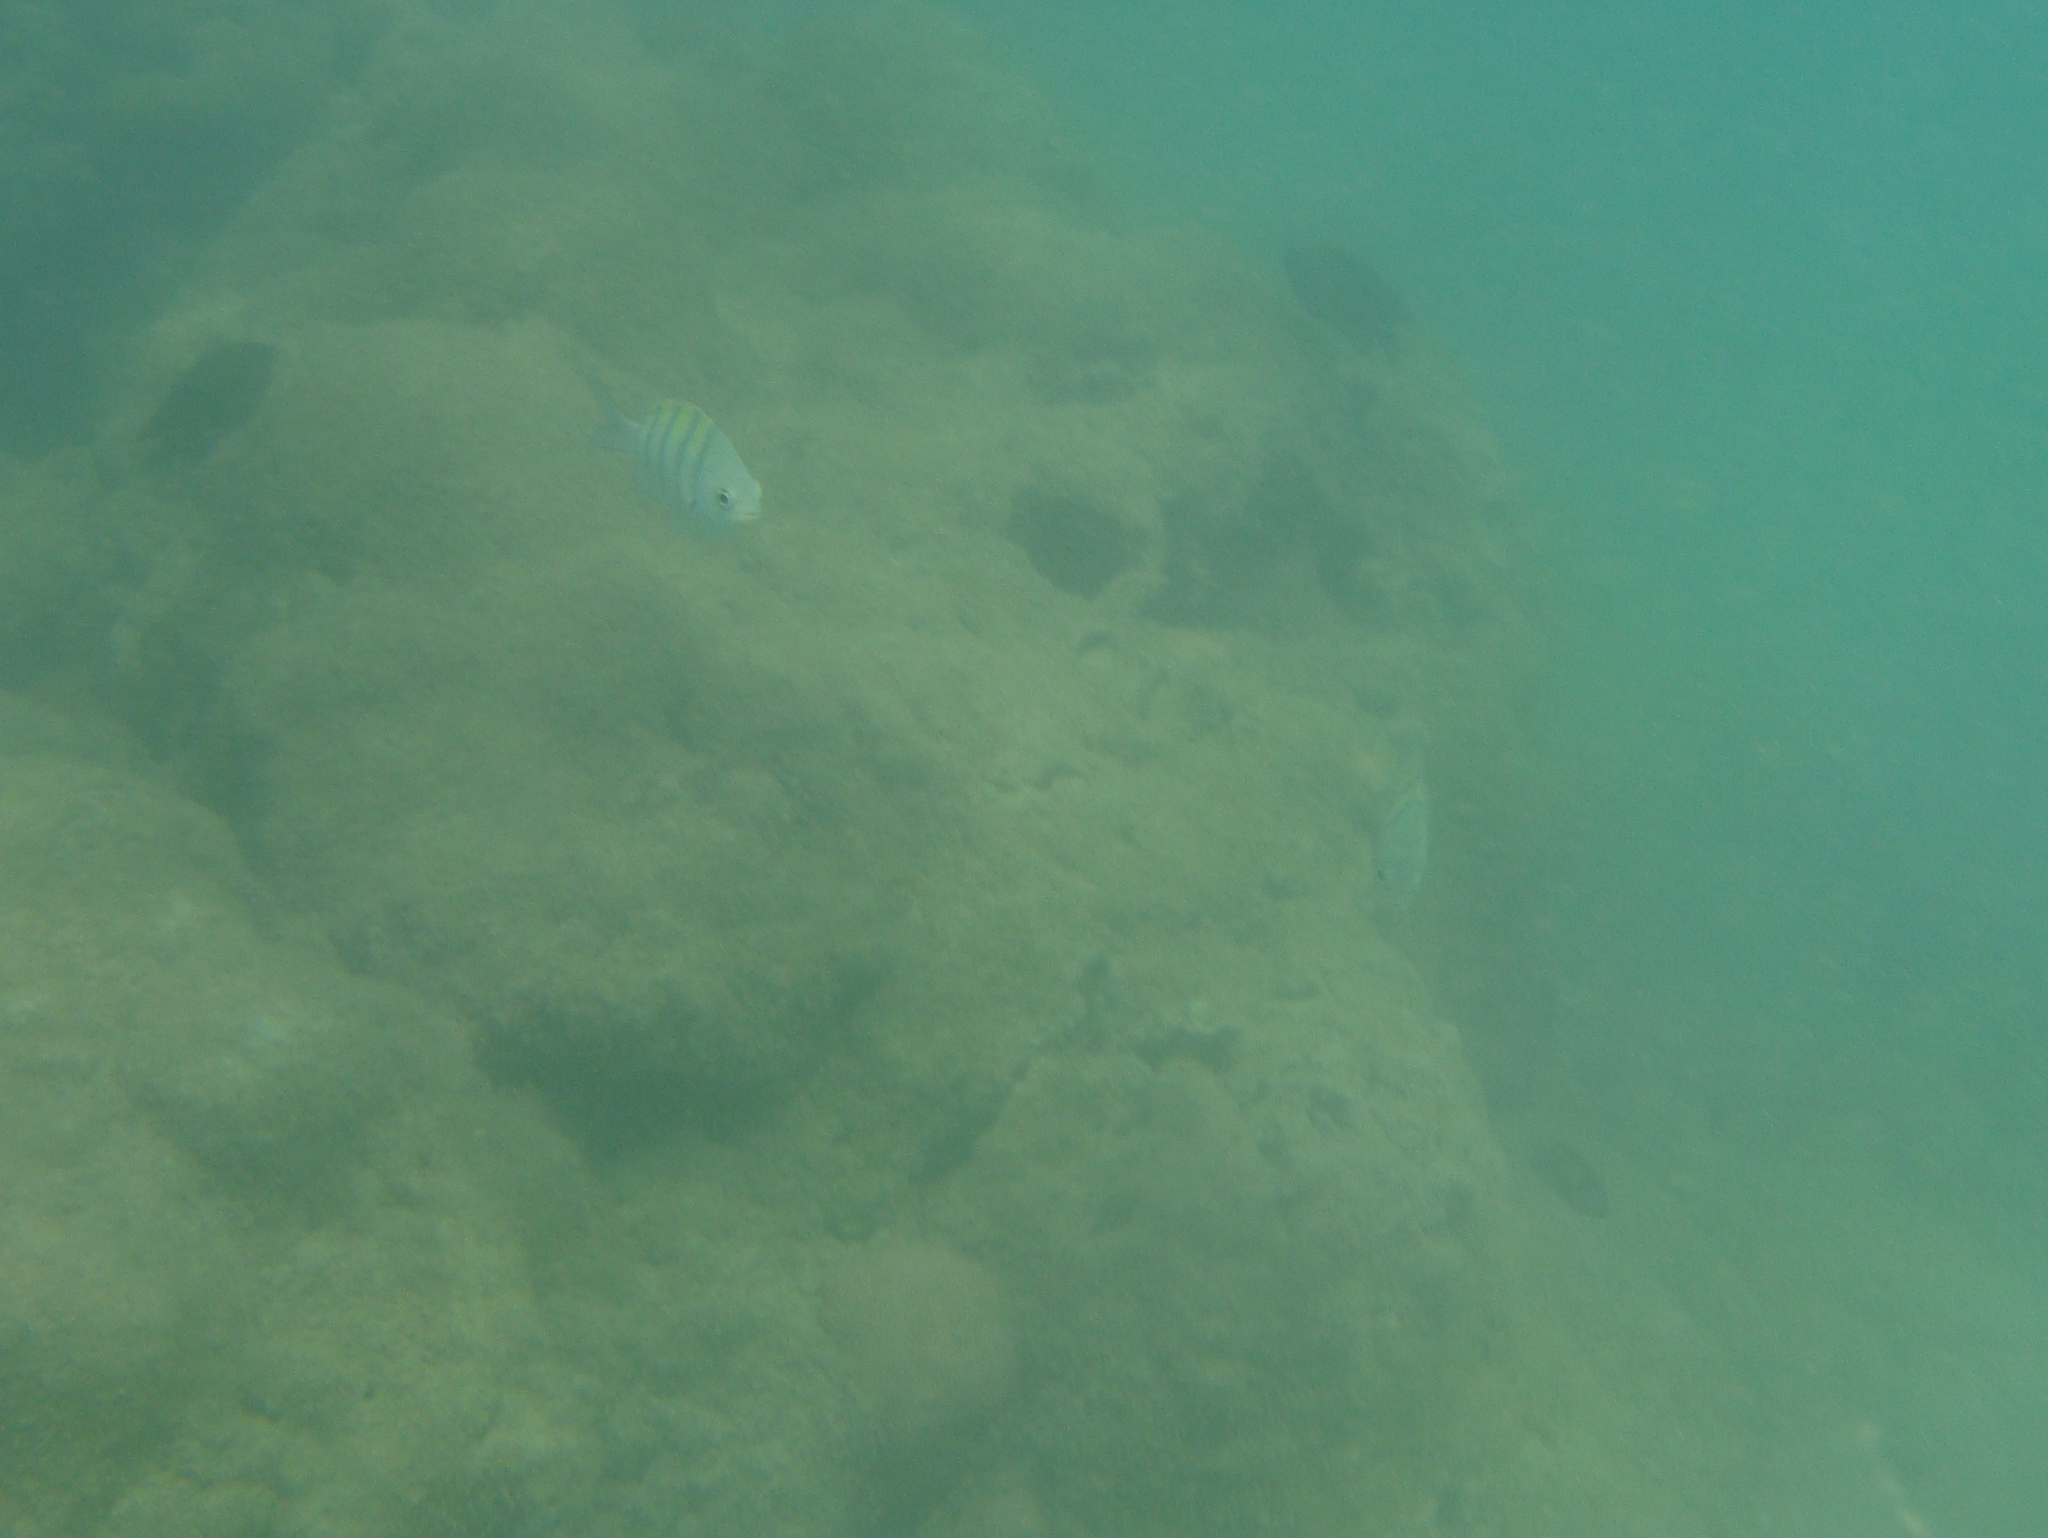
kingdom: Animalia
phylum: Chordata
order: Perciformes
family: Pomacentridae
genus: Abudefduf
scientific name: Abudefduf saxatilis
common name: Sergeant major
